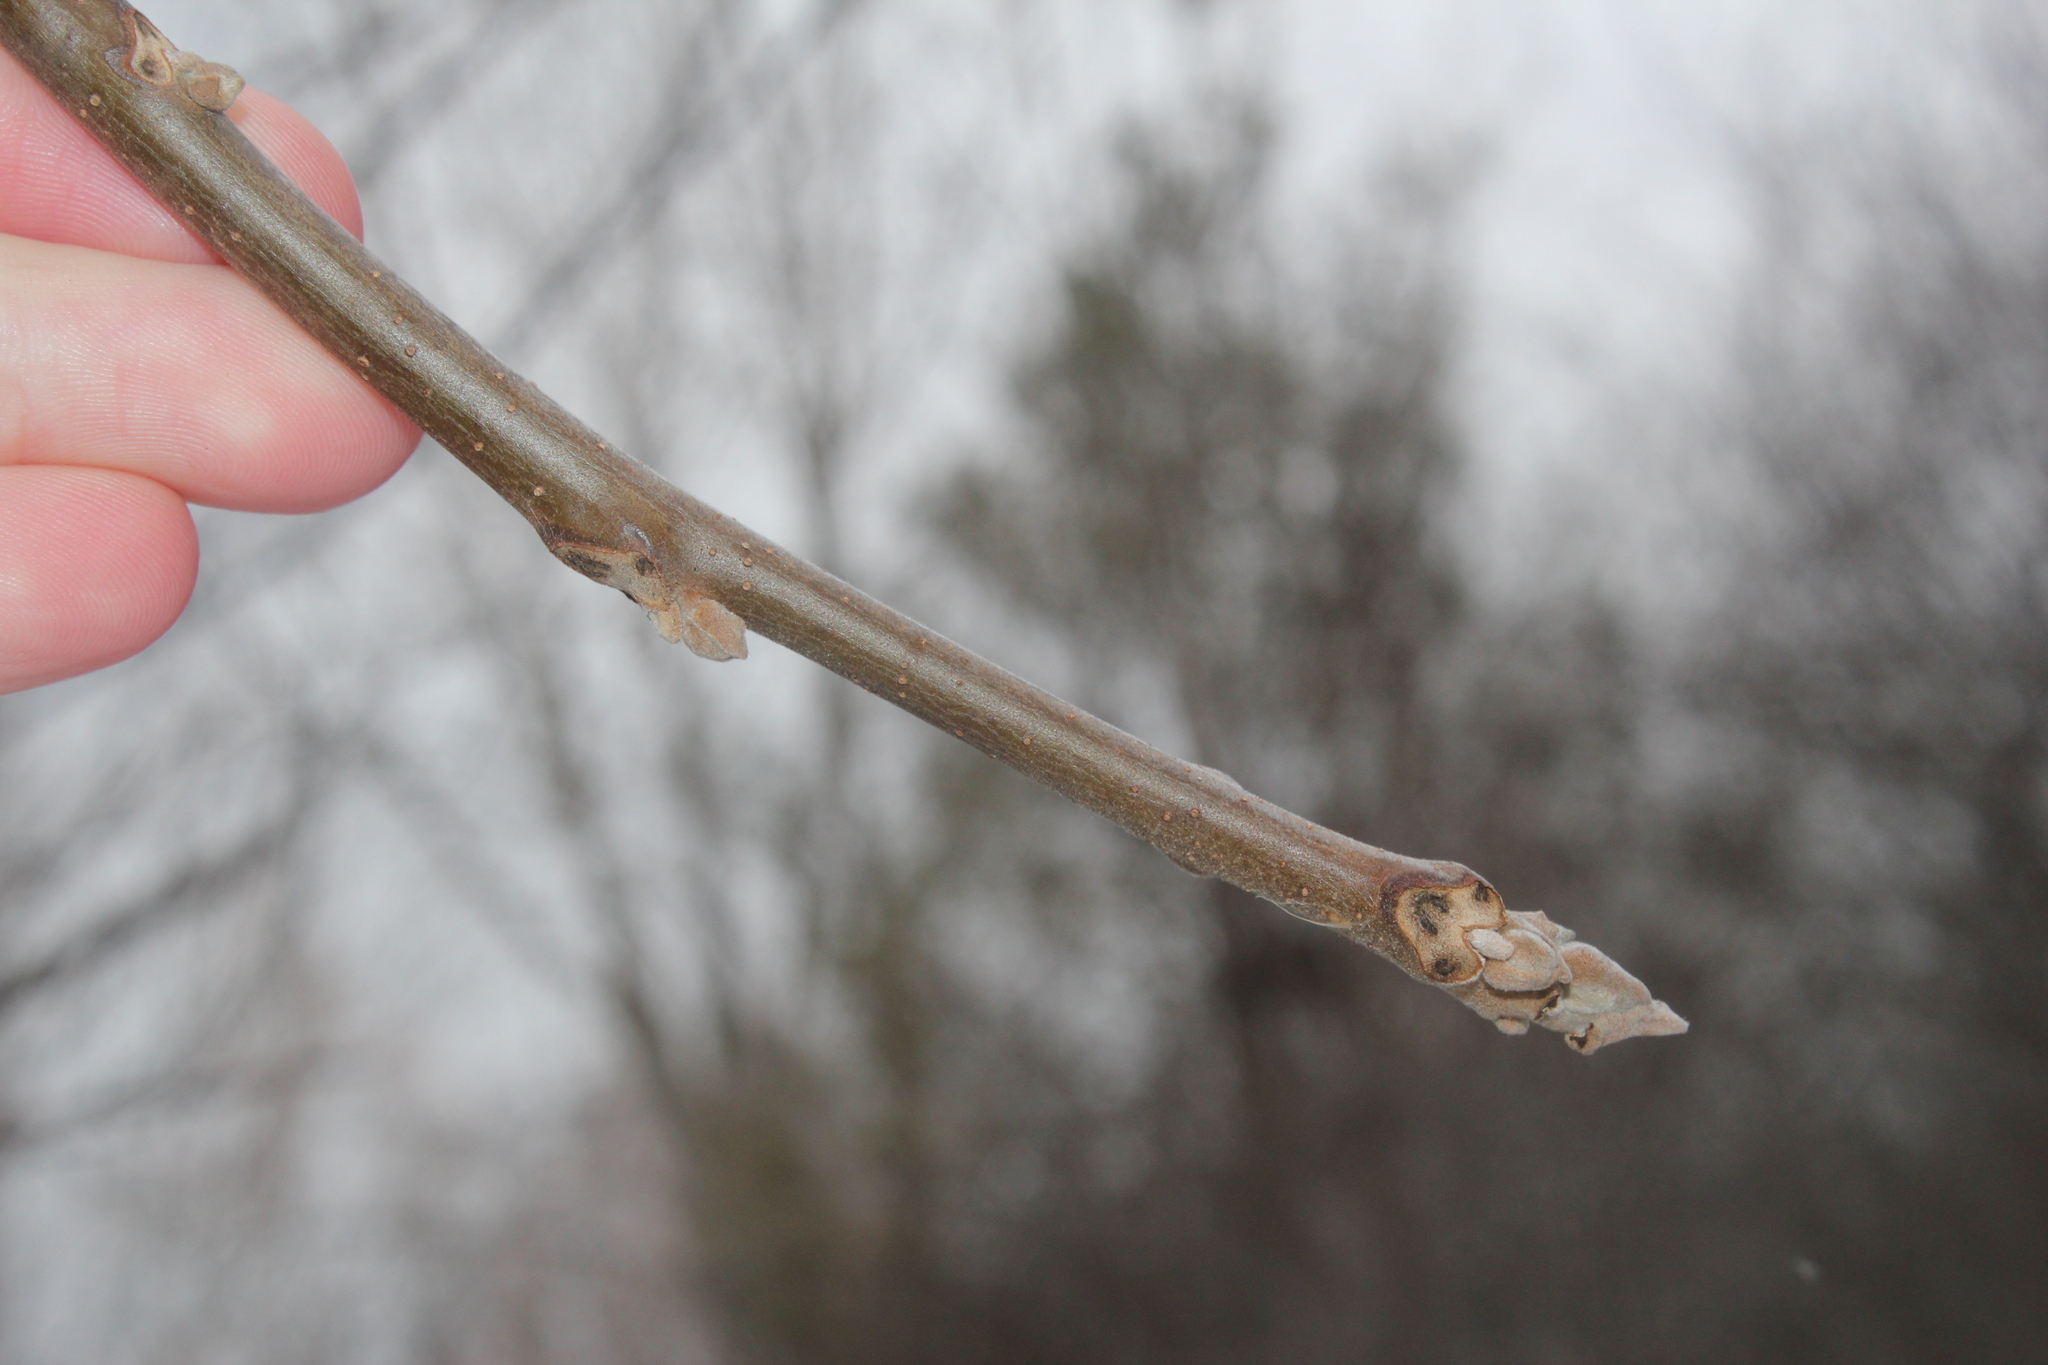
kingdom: Plantae
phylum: Tracheophyta
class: Magnoliopsida
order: Fagales
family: Juglandaceae
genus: Juglans
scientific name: Juglans nigra
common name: Black walnut
